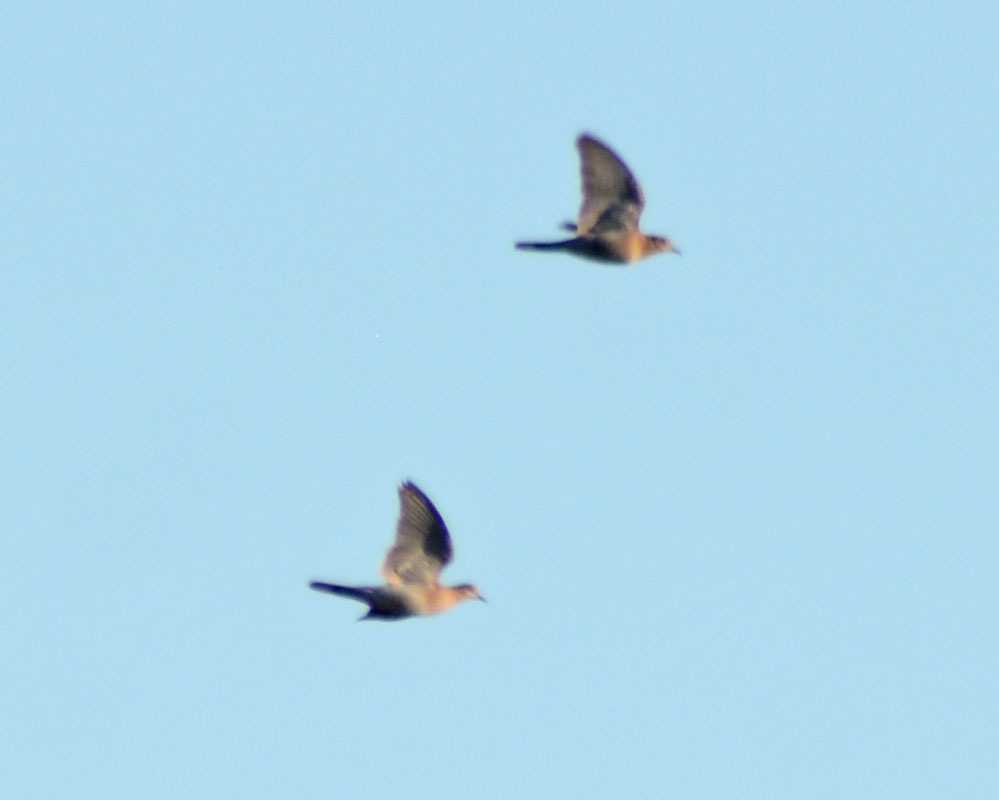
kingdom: Animalia
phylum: Chordata
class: Aves
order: Columbiformes
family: Columbidae
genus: Streptopelia
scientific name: Streptopelia decaocto
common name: Eurasian collared dove
